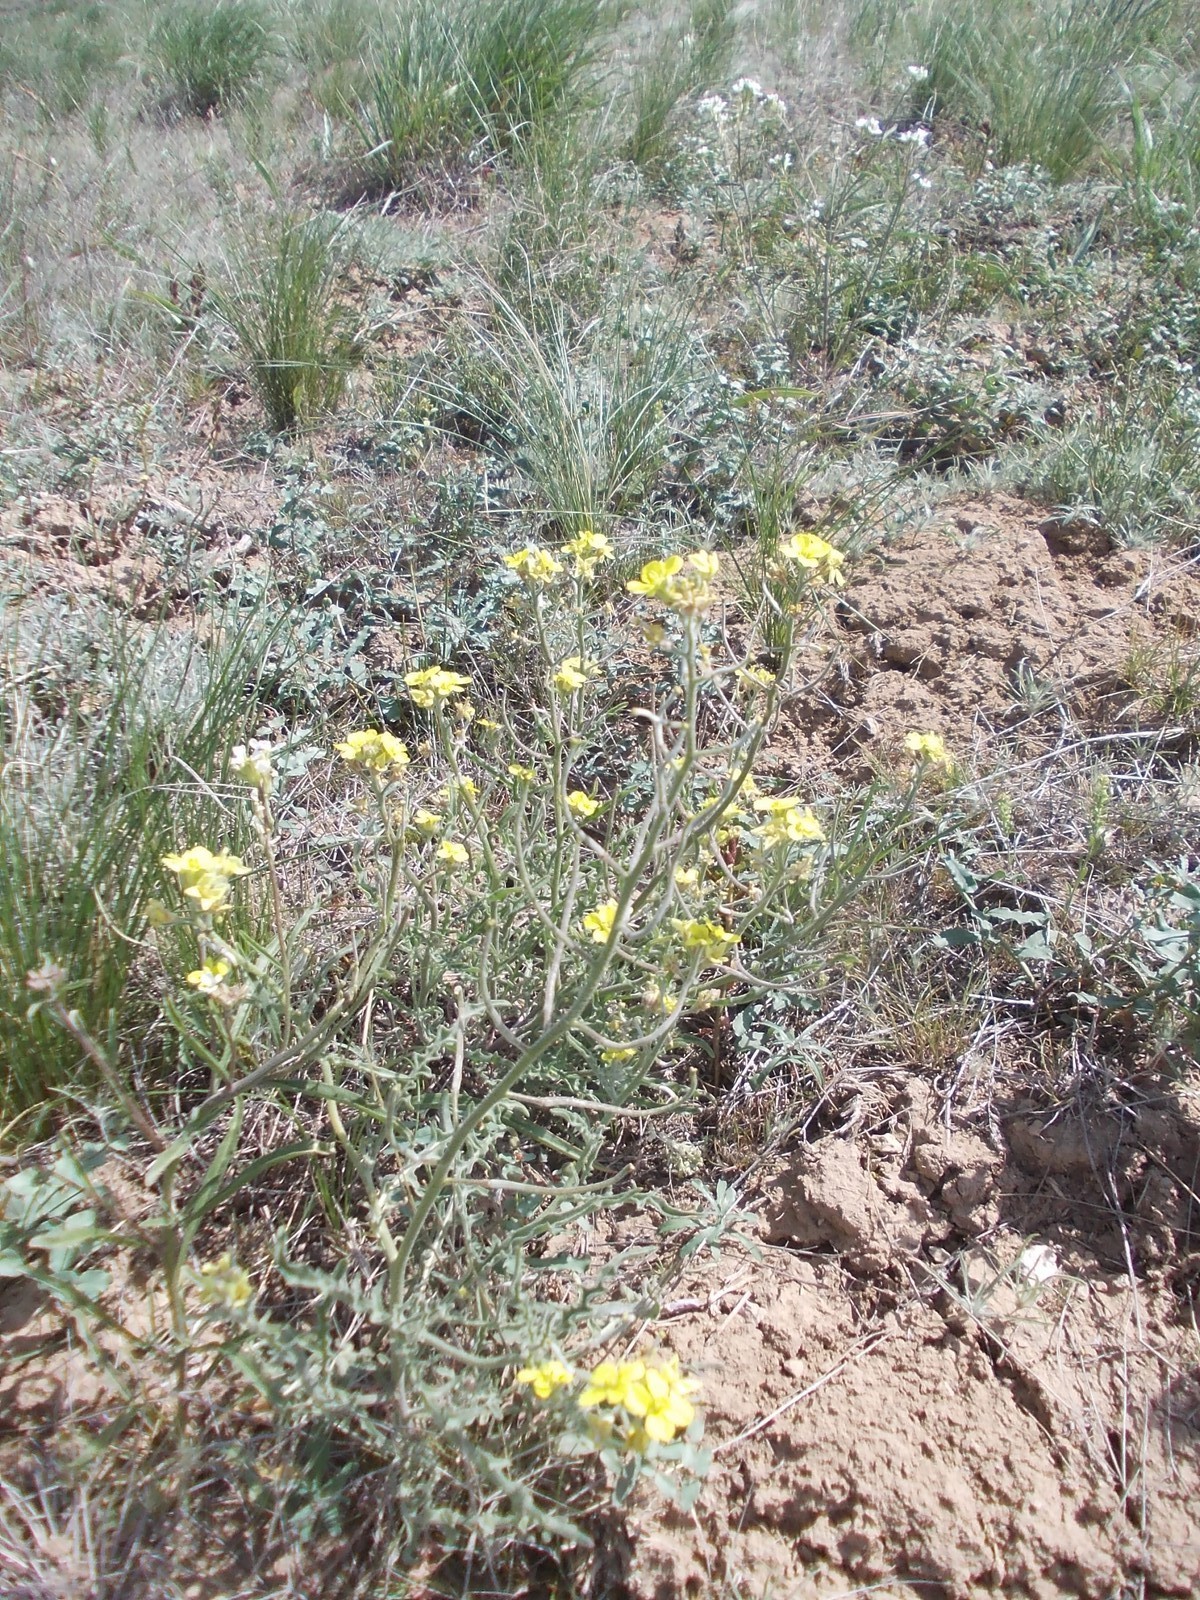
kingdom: Plantae
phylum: Tracheophyta
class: Magnoliopsida
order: Brassicales
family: Brassicaceae
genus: Sterigmostemum
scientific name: Sterigmostemum caspicum
